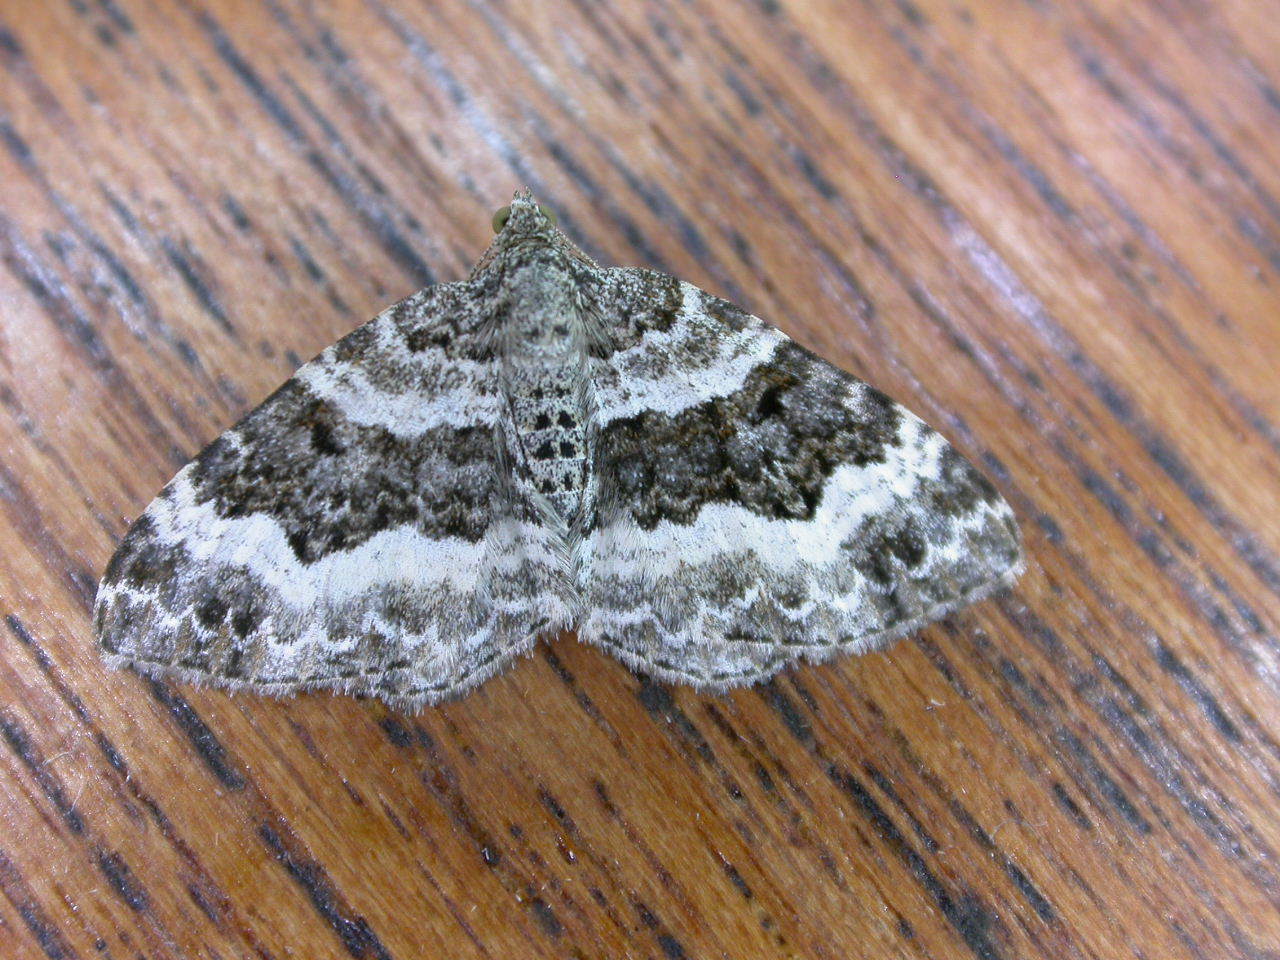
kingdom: Animalia
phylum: Arthropoda
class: Insecta
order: Lepidoptera
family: Geometridae
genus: Epirrhoe
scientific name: Epirrhoe alternata
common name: Common carpet
